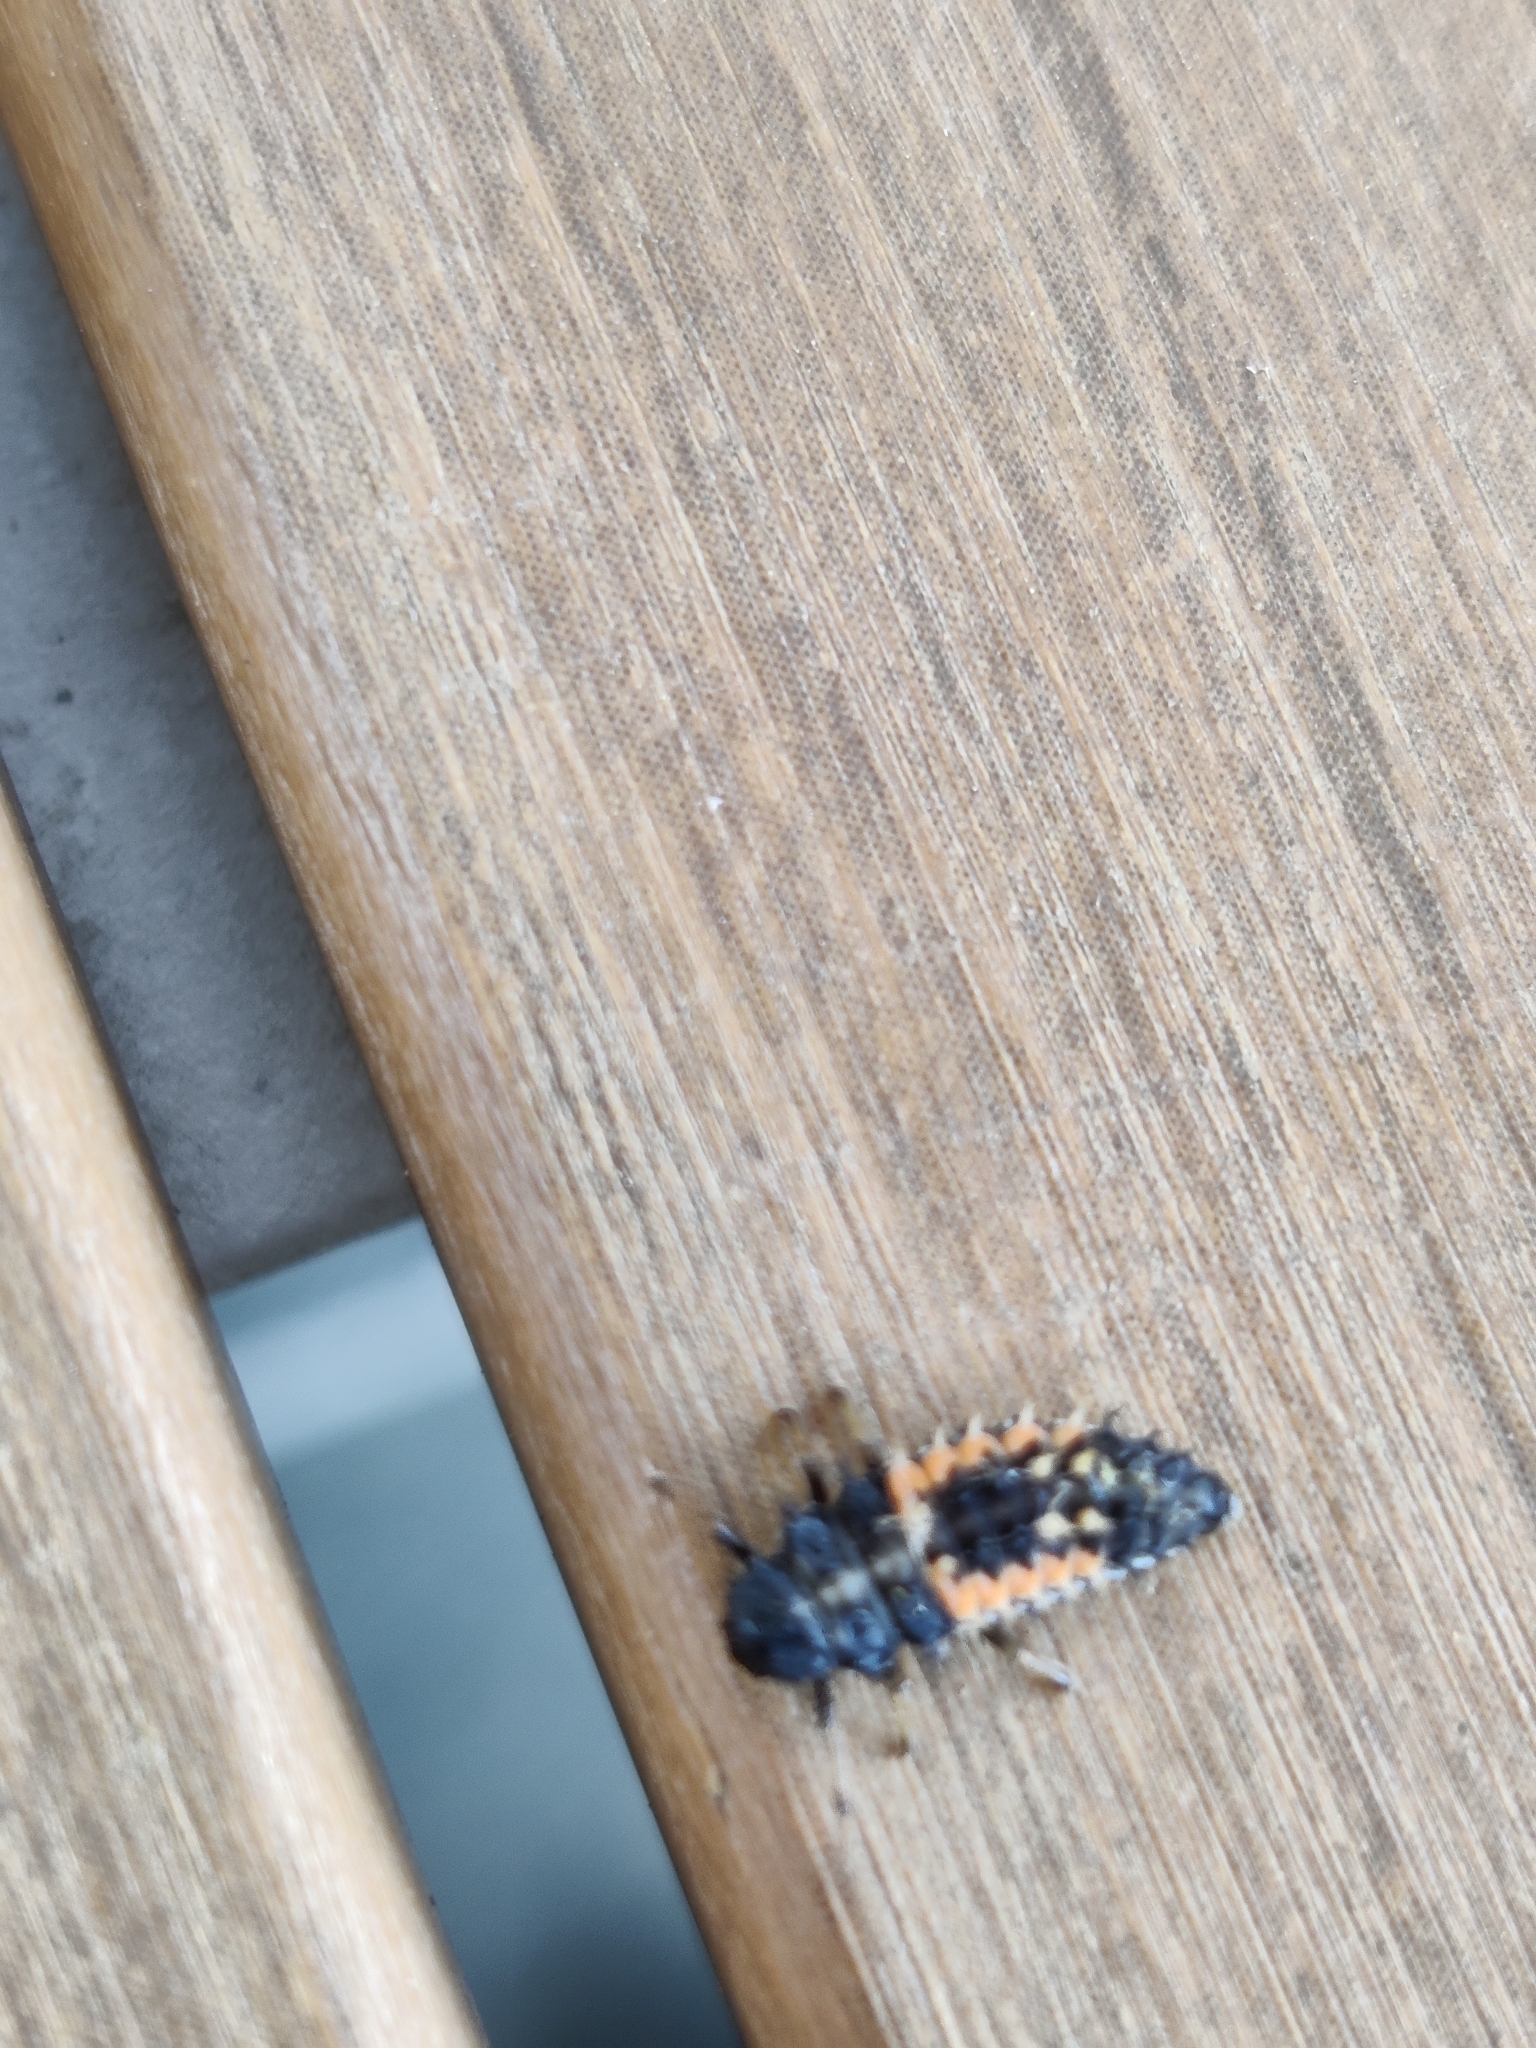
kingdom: Animalia
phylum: Arthropoda
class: Insecta
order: Coleoptera
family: Coccinellidae
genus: Harmonia
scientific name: Harmonia axyridis
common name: Harlequin ladybird
